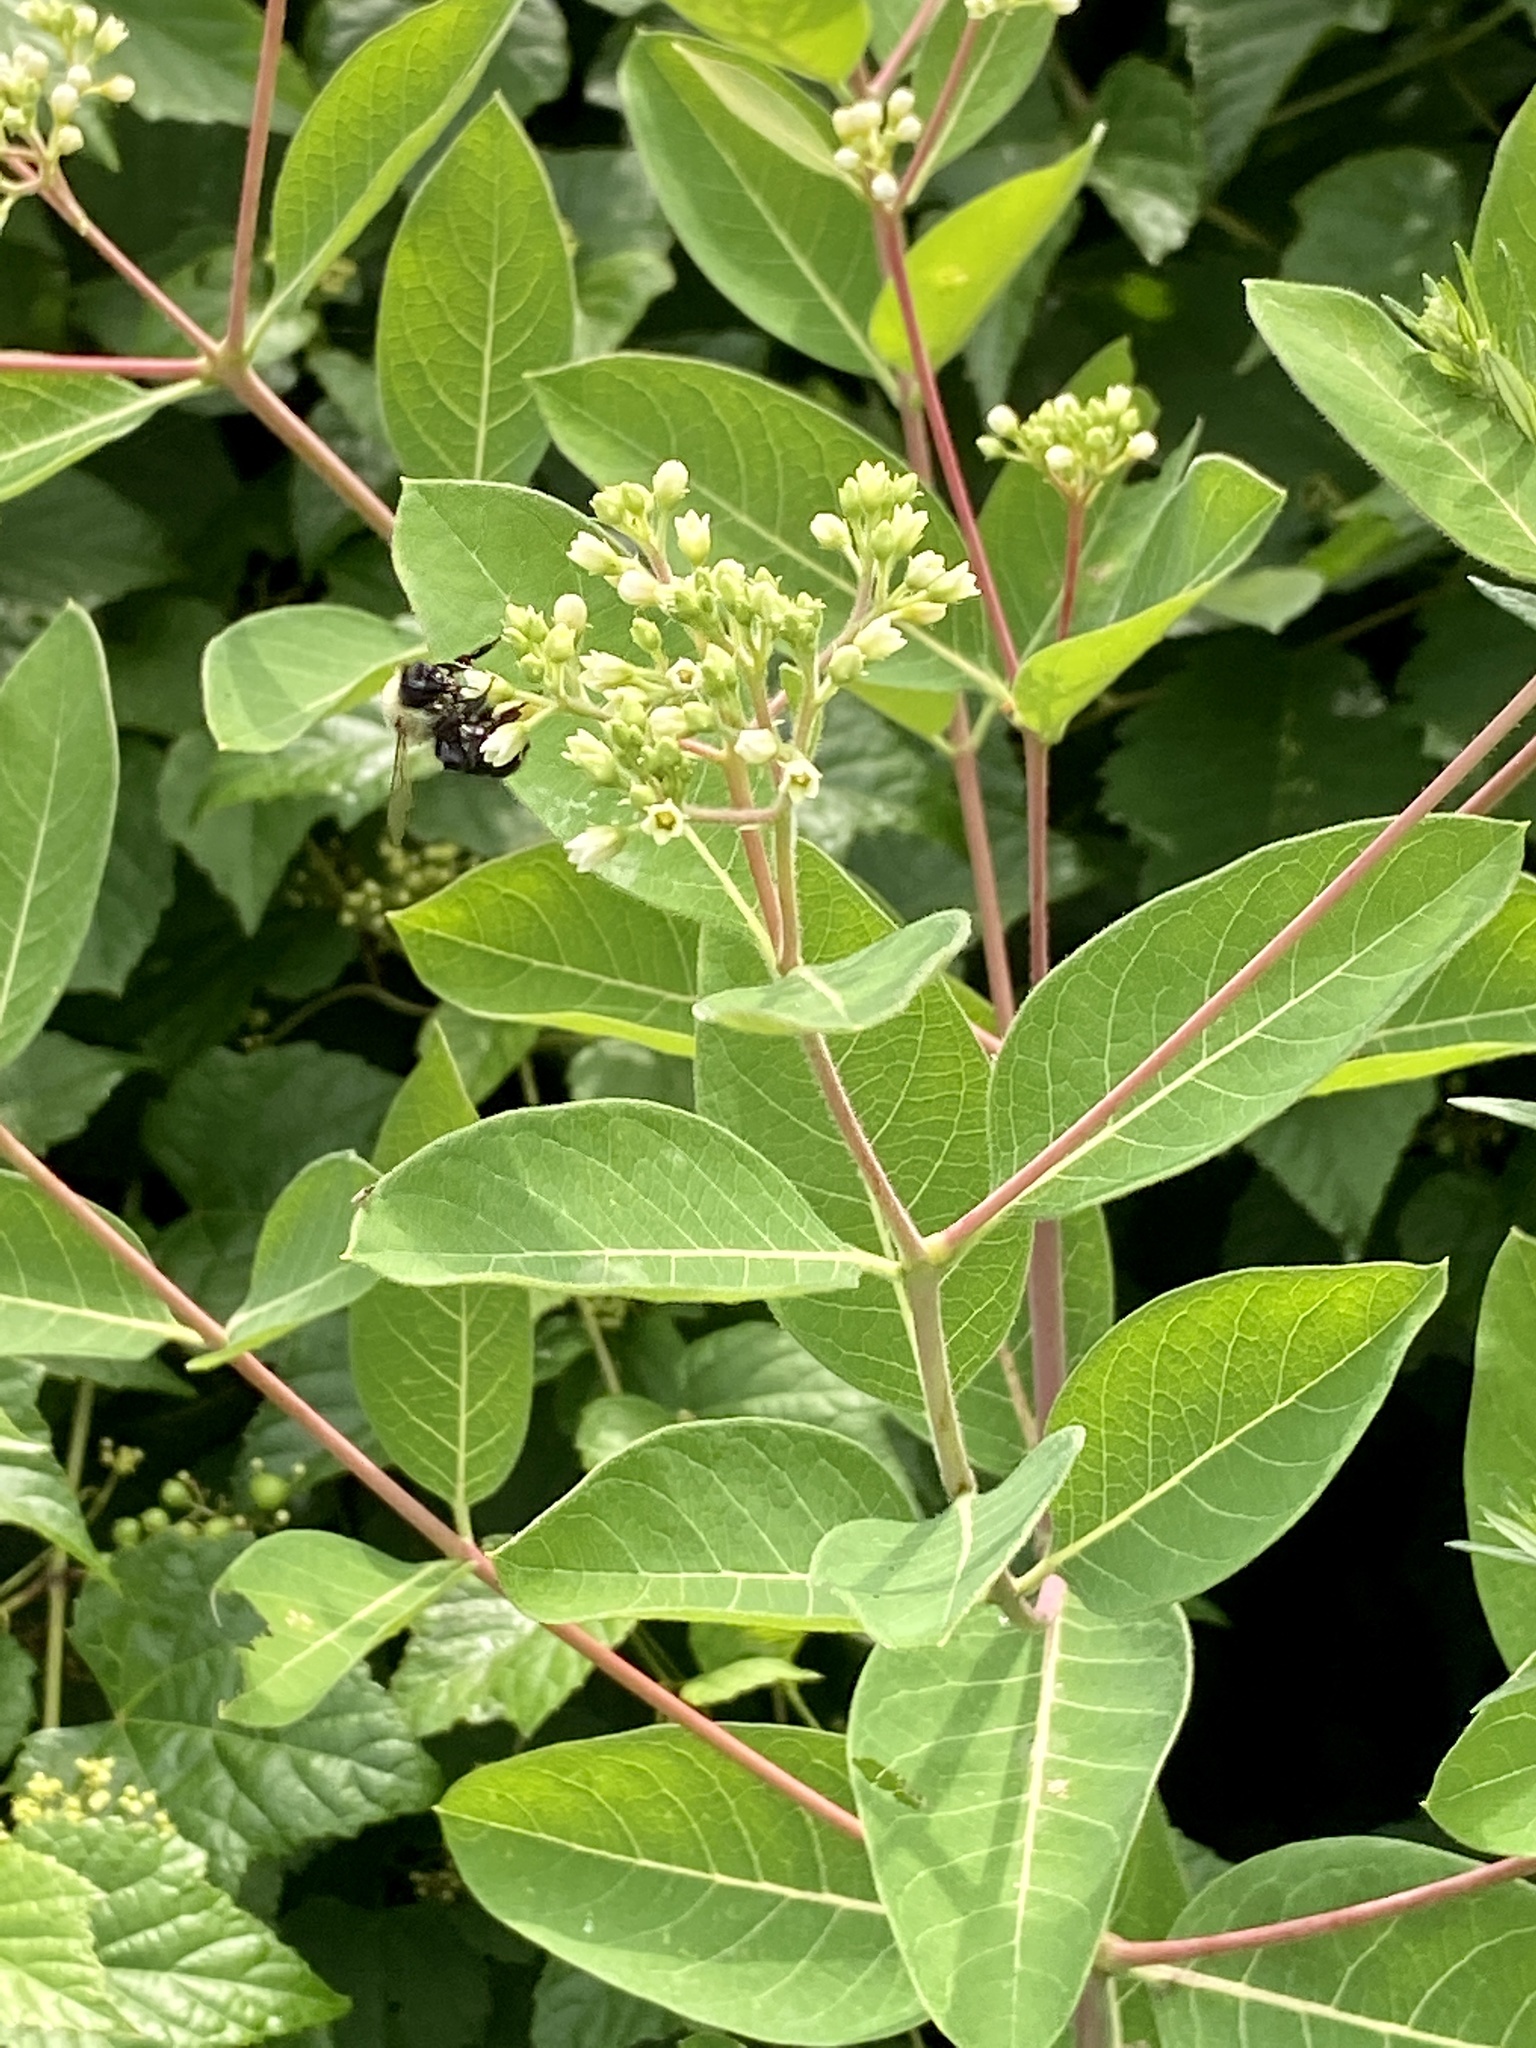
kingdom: Plantae
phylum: Tracheophyta
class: Magnoliopsida
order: Gentianales
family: Apocynaceae
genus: Apocynum
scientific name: Apocynum cannabinum
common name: Hemp dogbane
